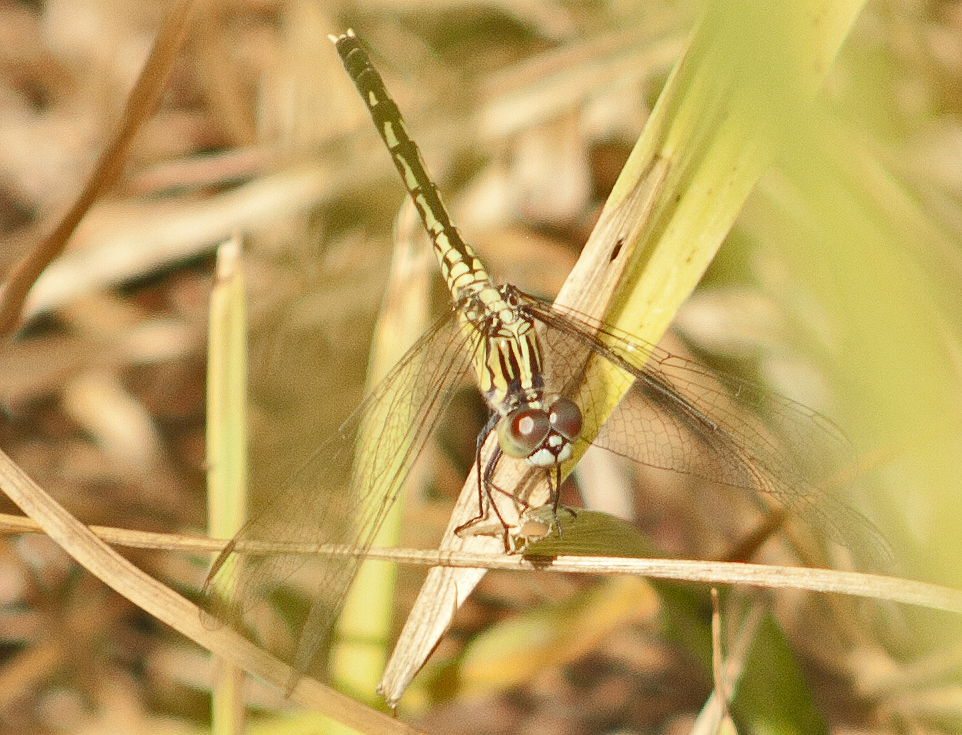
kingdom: Animalia
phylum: Arthropoda
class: Insecta
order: Odonata
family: Libellulidae
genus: Diplacodes
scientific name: Diplacodes trivialis
